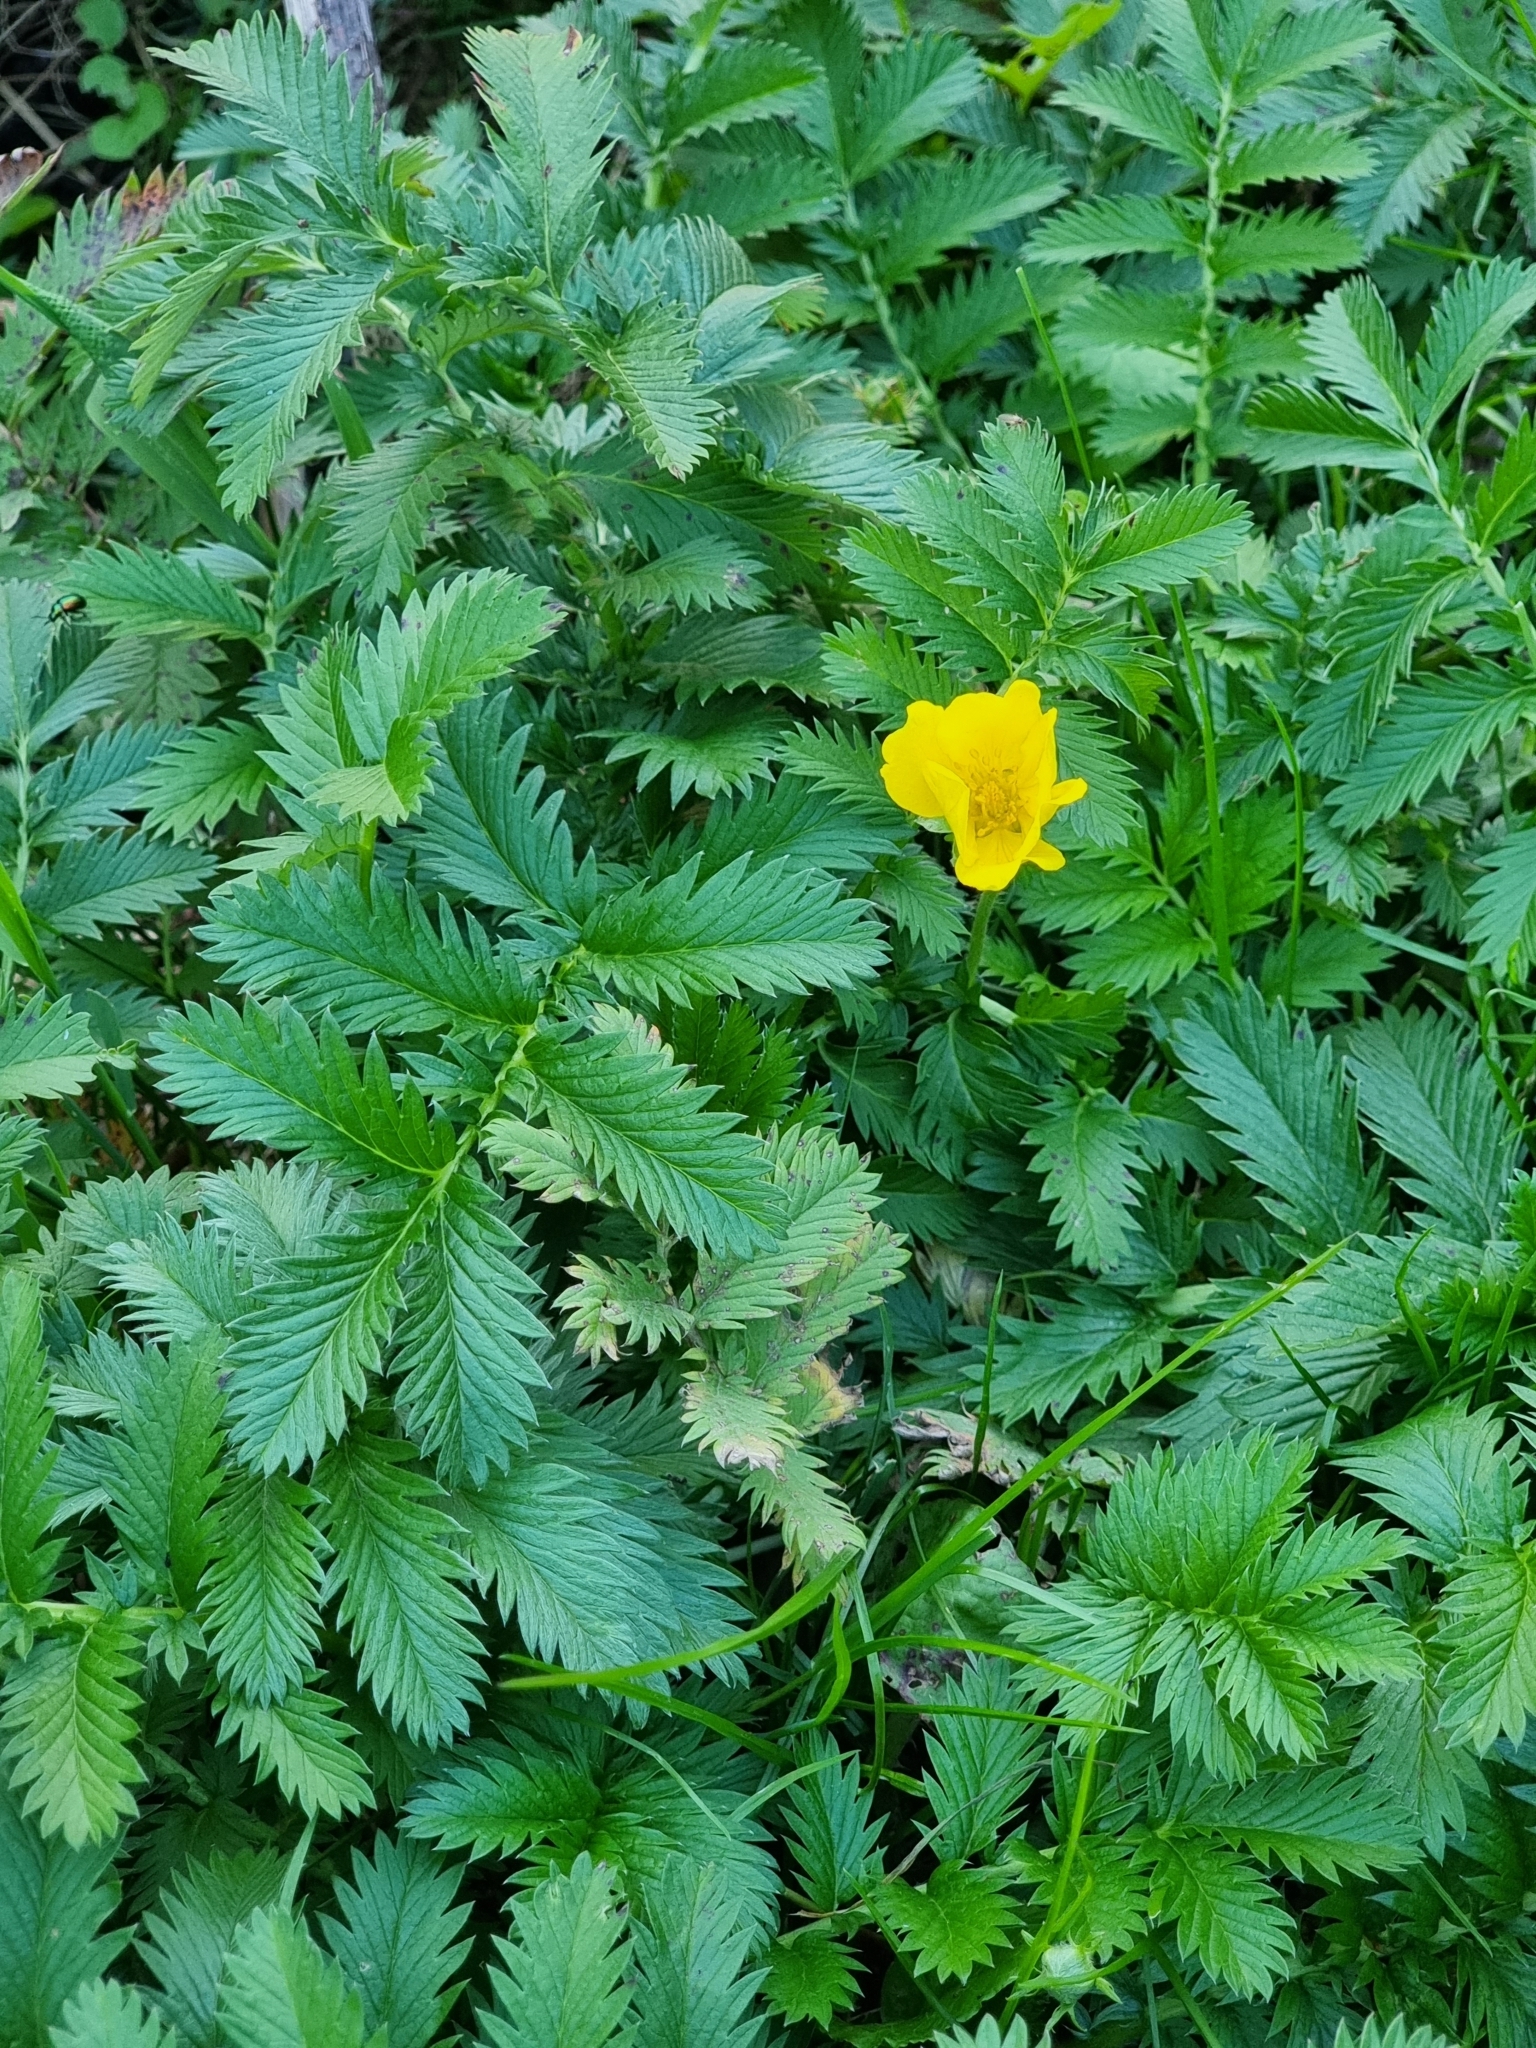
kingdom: Plantae
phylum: Tracheophyta
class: Magnoliopsida
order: Rosales
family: Rosaceae
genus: Argentina
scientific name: Argentina anserina
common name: Common silverweed
